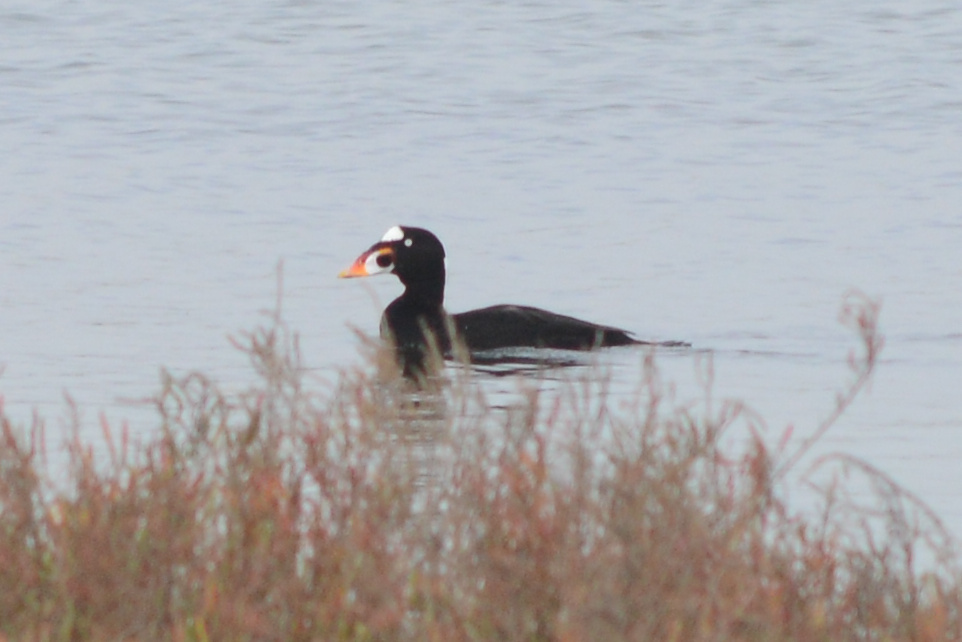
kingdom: Animalia
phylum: Chordata
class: Aves
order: Anseriformes
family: Anatidae
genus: Melanitta
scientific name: Melanitta perspicillata
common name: Surf scoter
